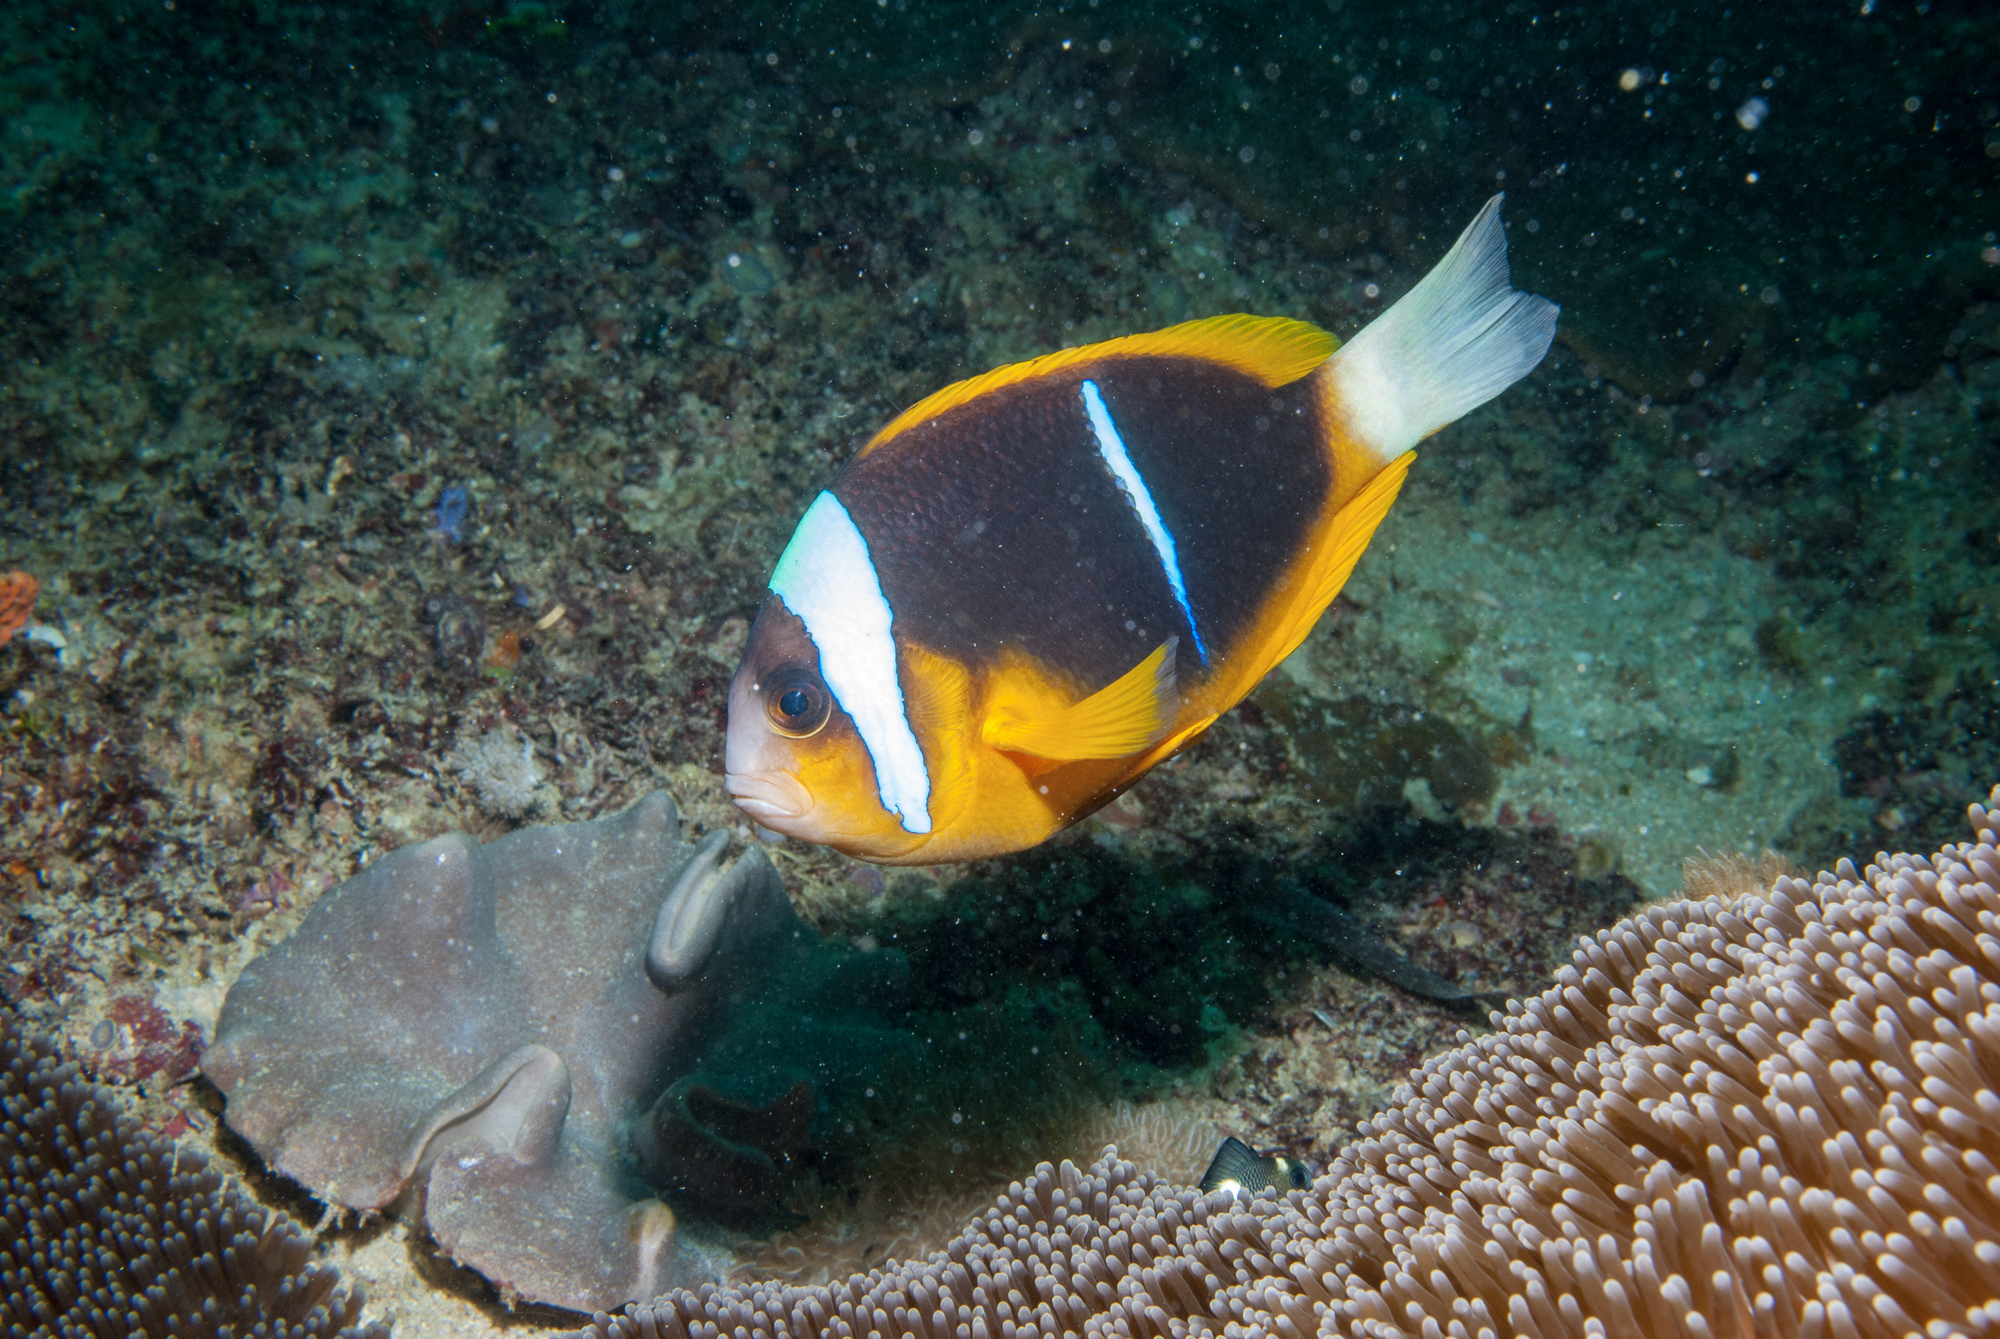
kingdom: Animalia
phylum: Chordata
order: Perciformes
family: Pomacentridae
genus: Amphiprion
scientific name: Amphiprion allardi
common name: Allard's anemonefish
